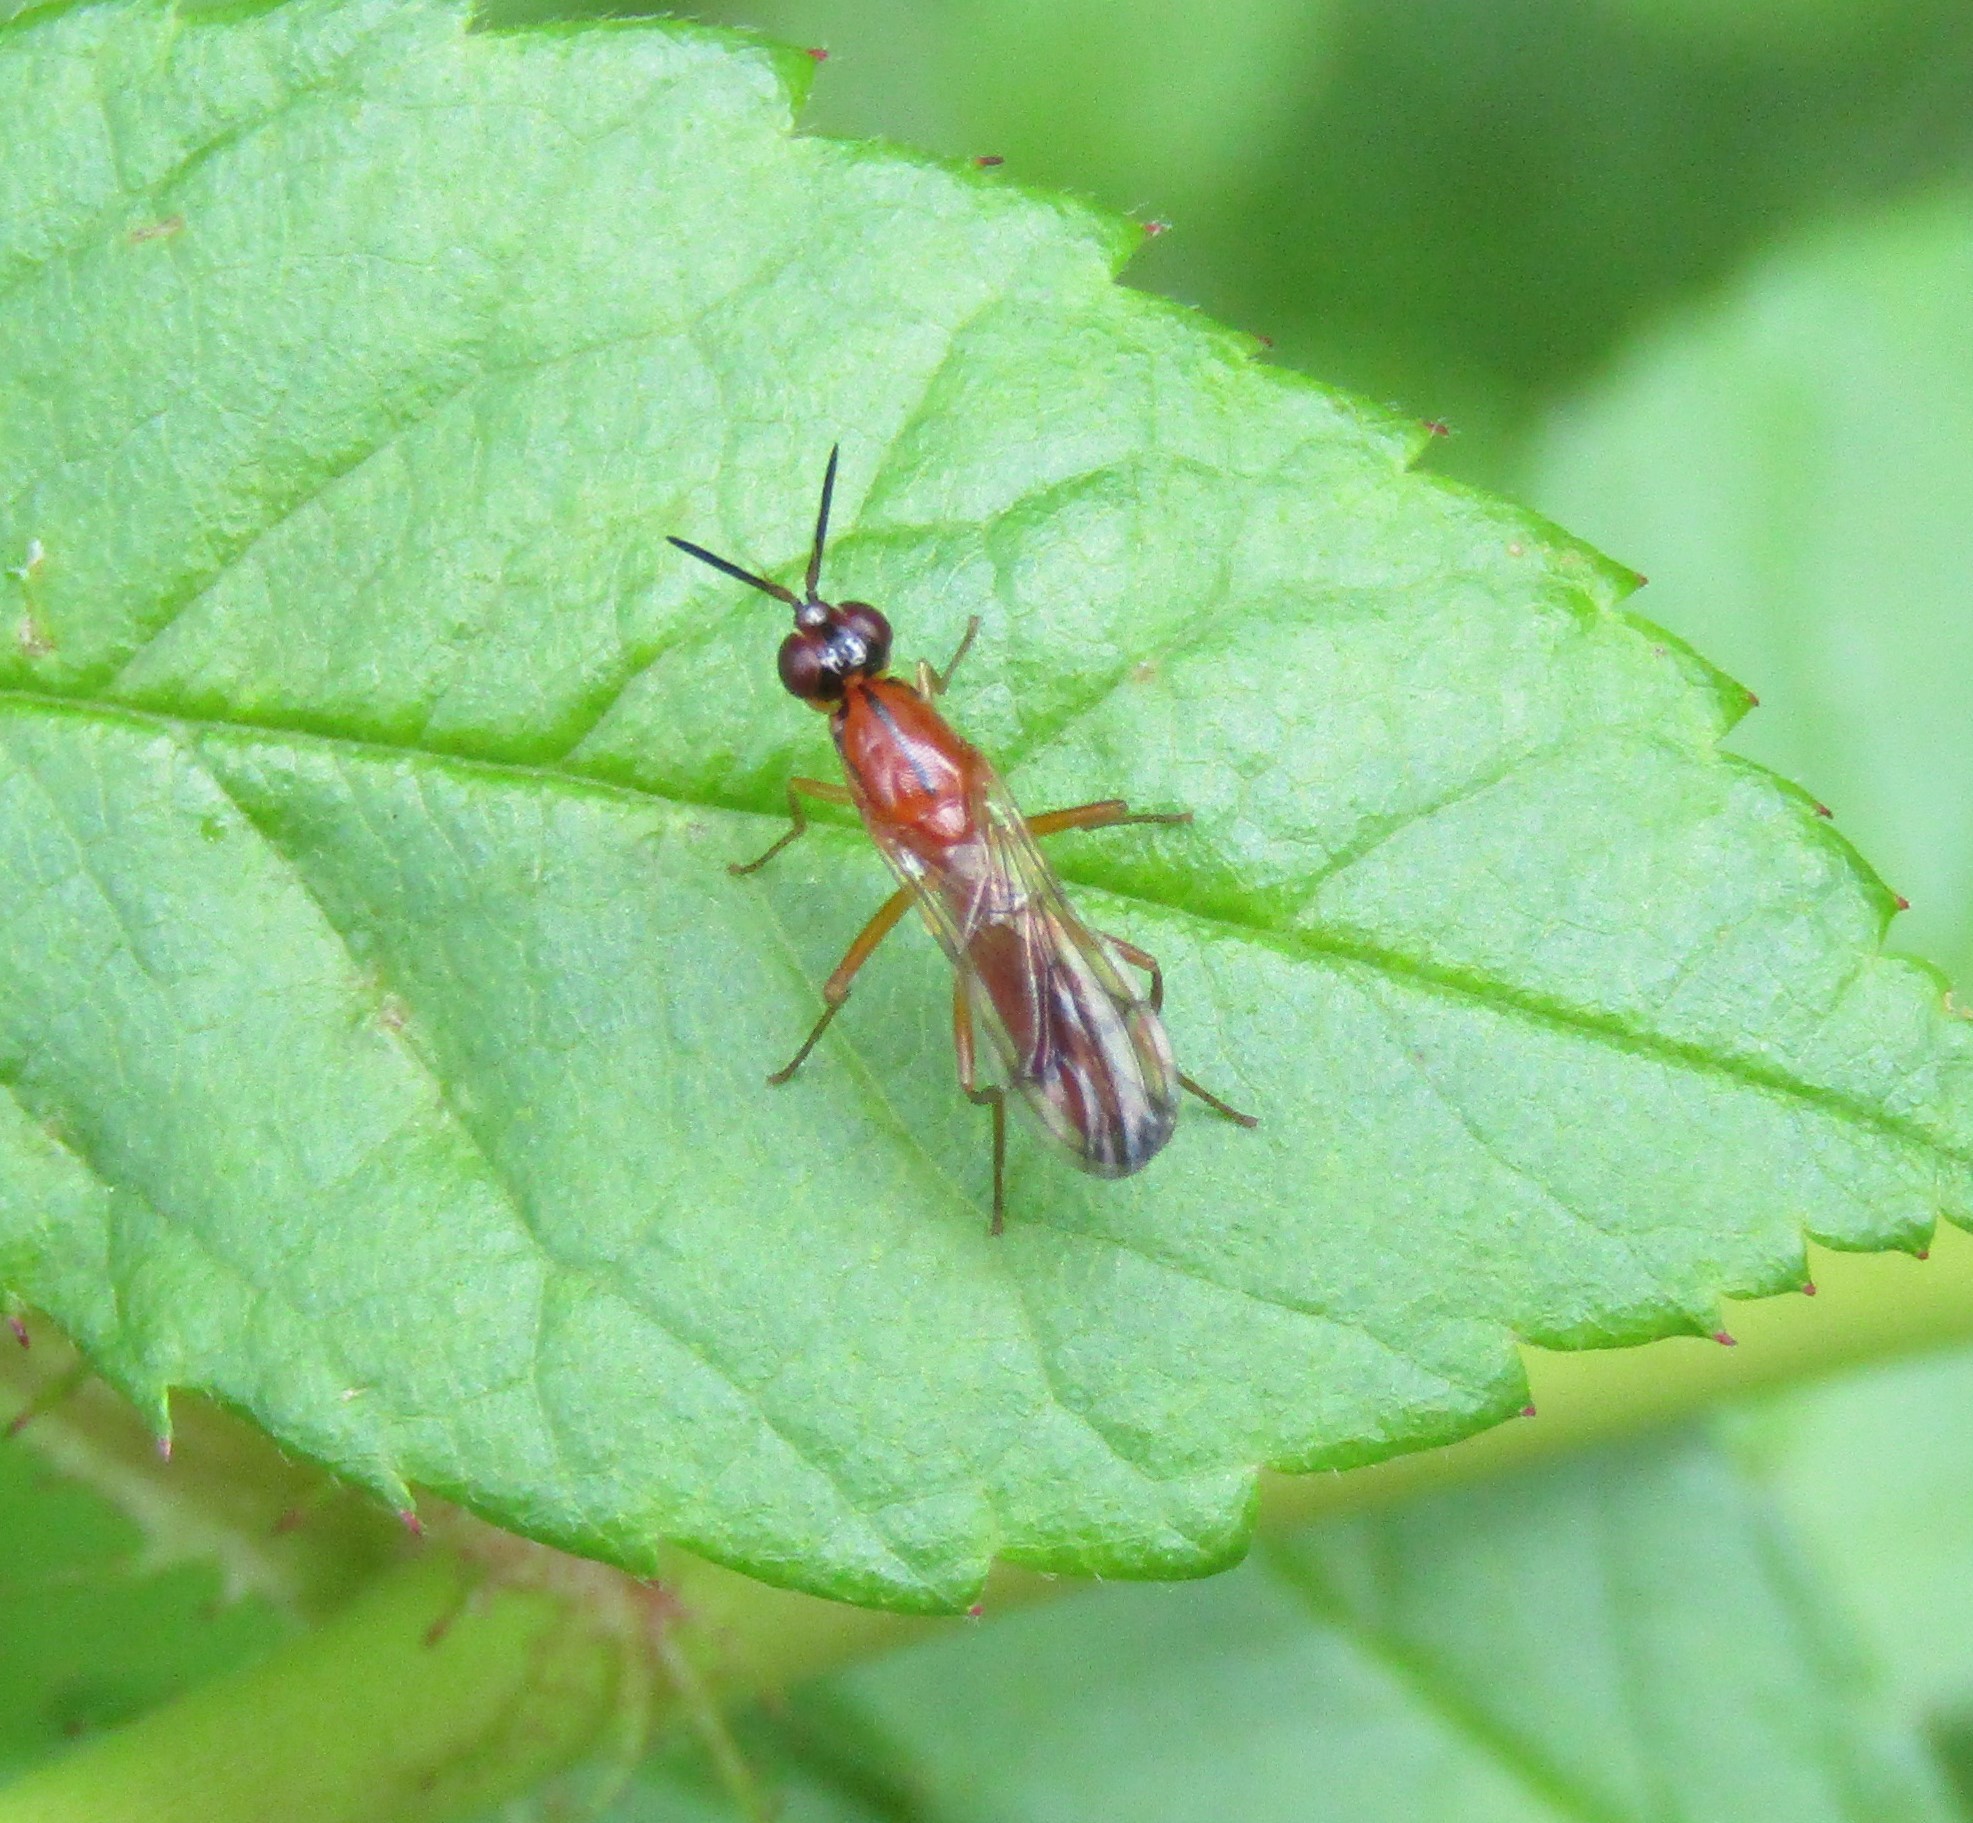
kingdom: Animalia
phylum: Arthropoda
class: Insecta
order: Diptera
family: Psilidae
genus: Loxocera
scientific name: Loxocera cylindrica
